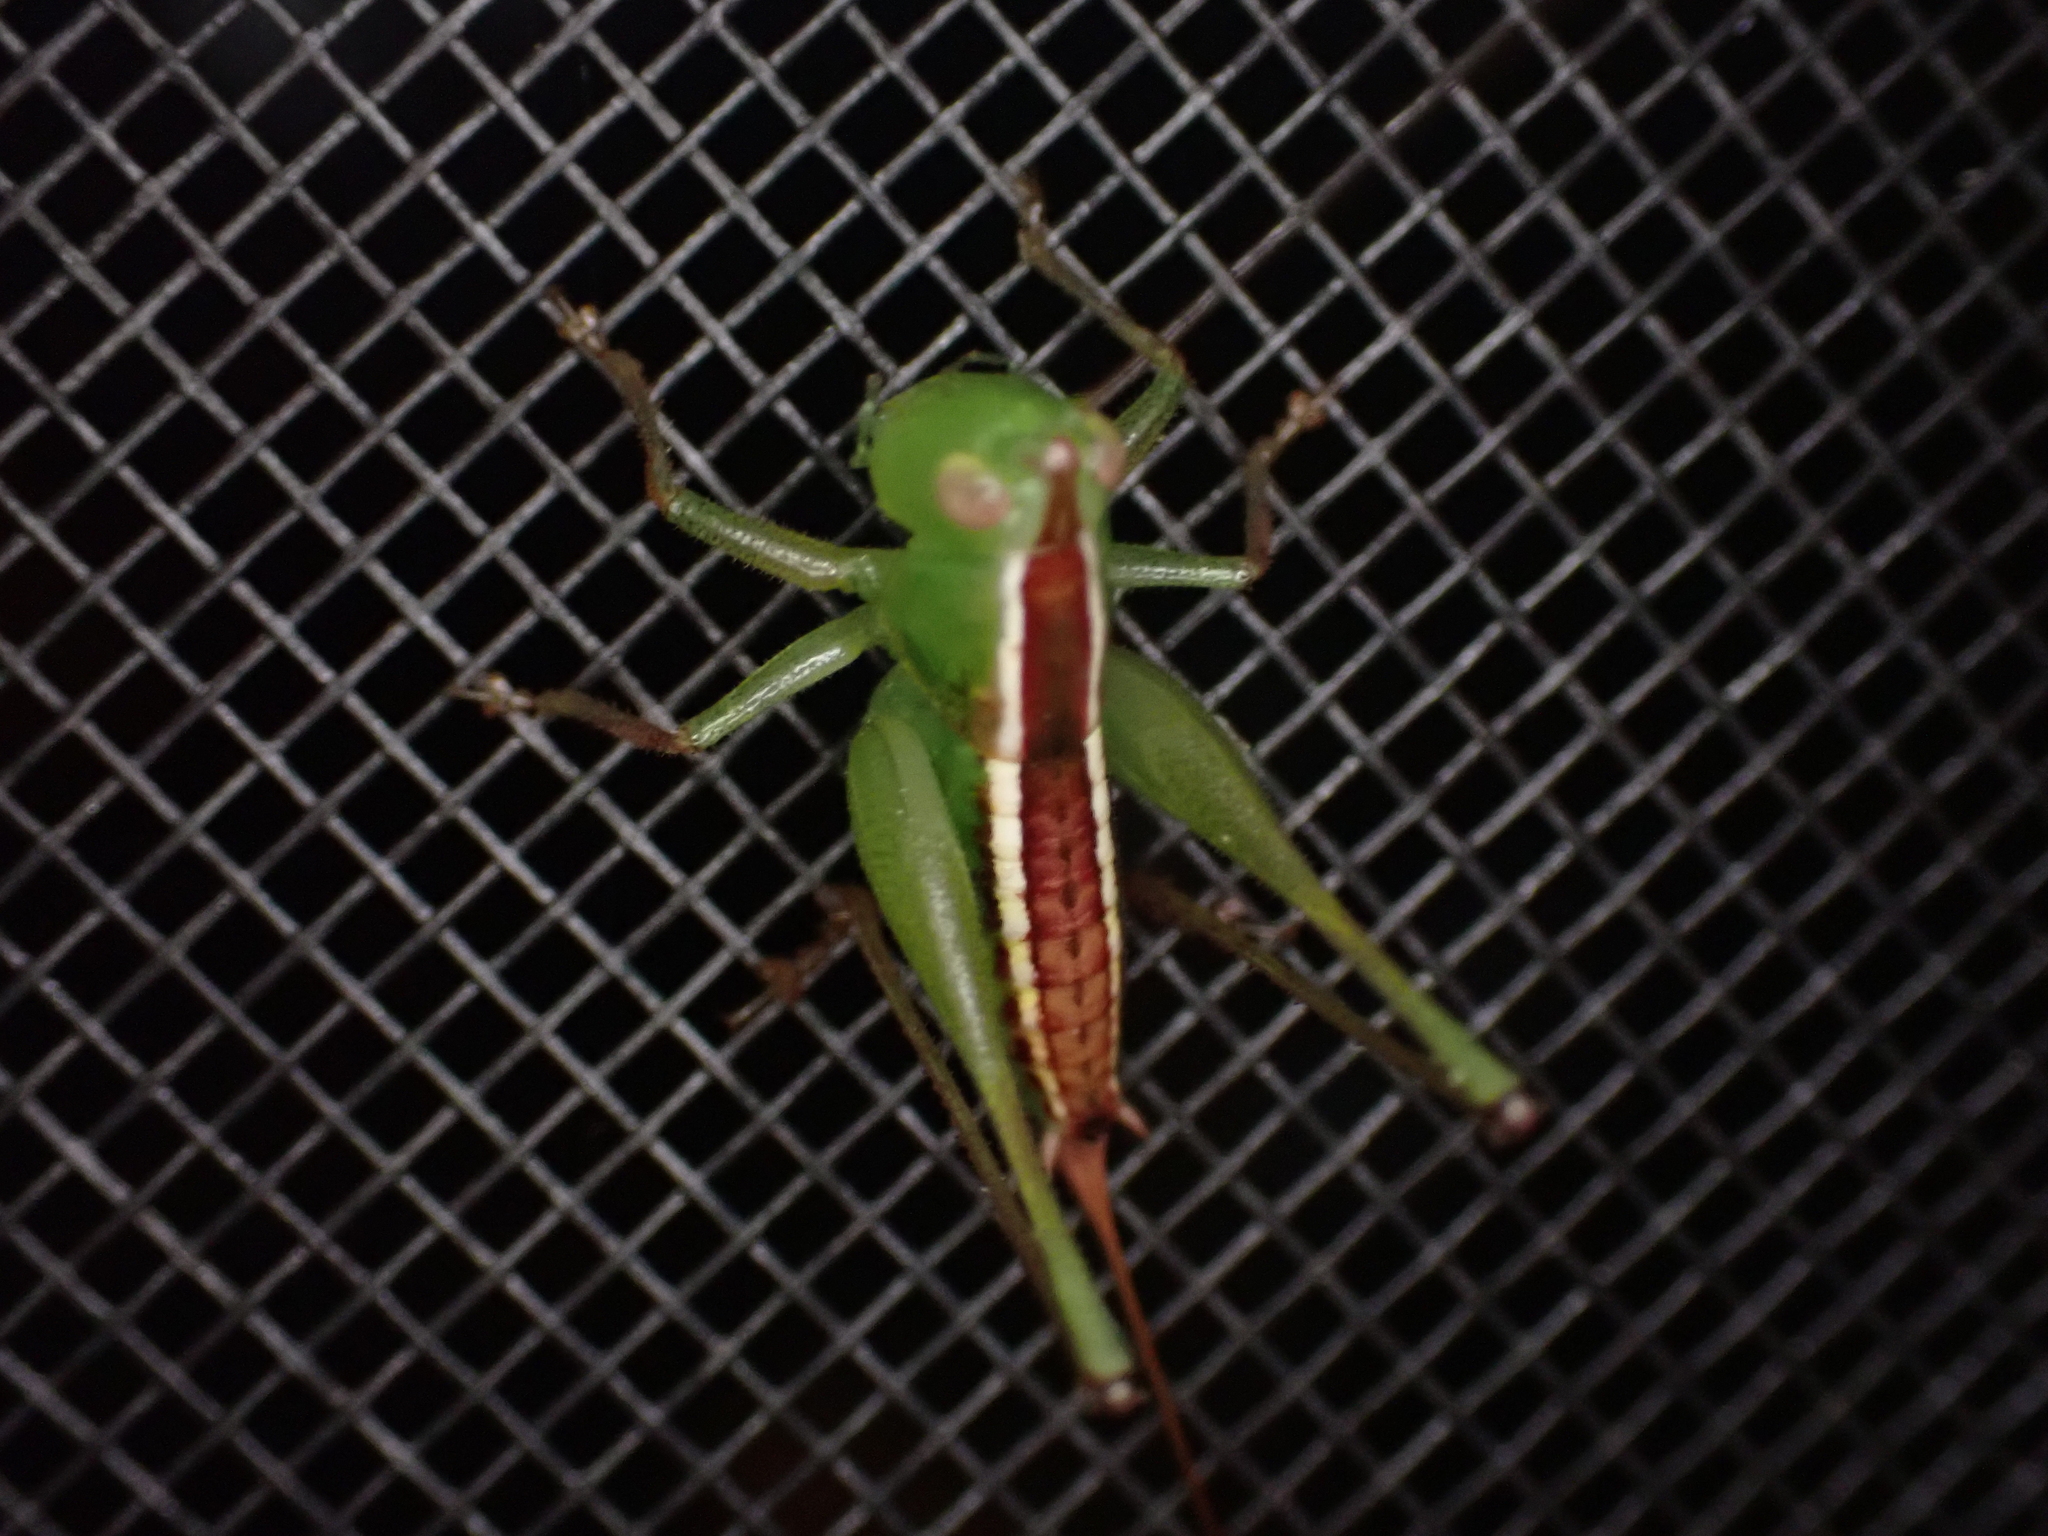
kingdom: Animalia
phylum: Arthropoda
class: Insecta
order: Orthoptera
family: Tettigoniidae
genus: Odontoxiphidium
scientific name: Odontoxiphidium apterum
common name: Wingless meadow katydid
